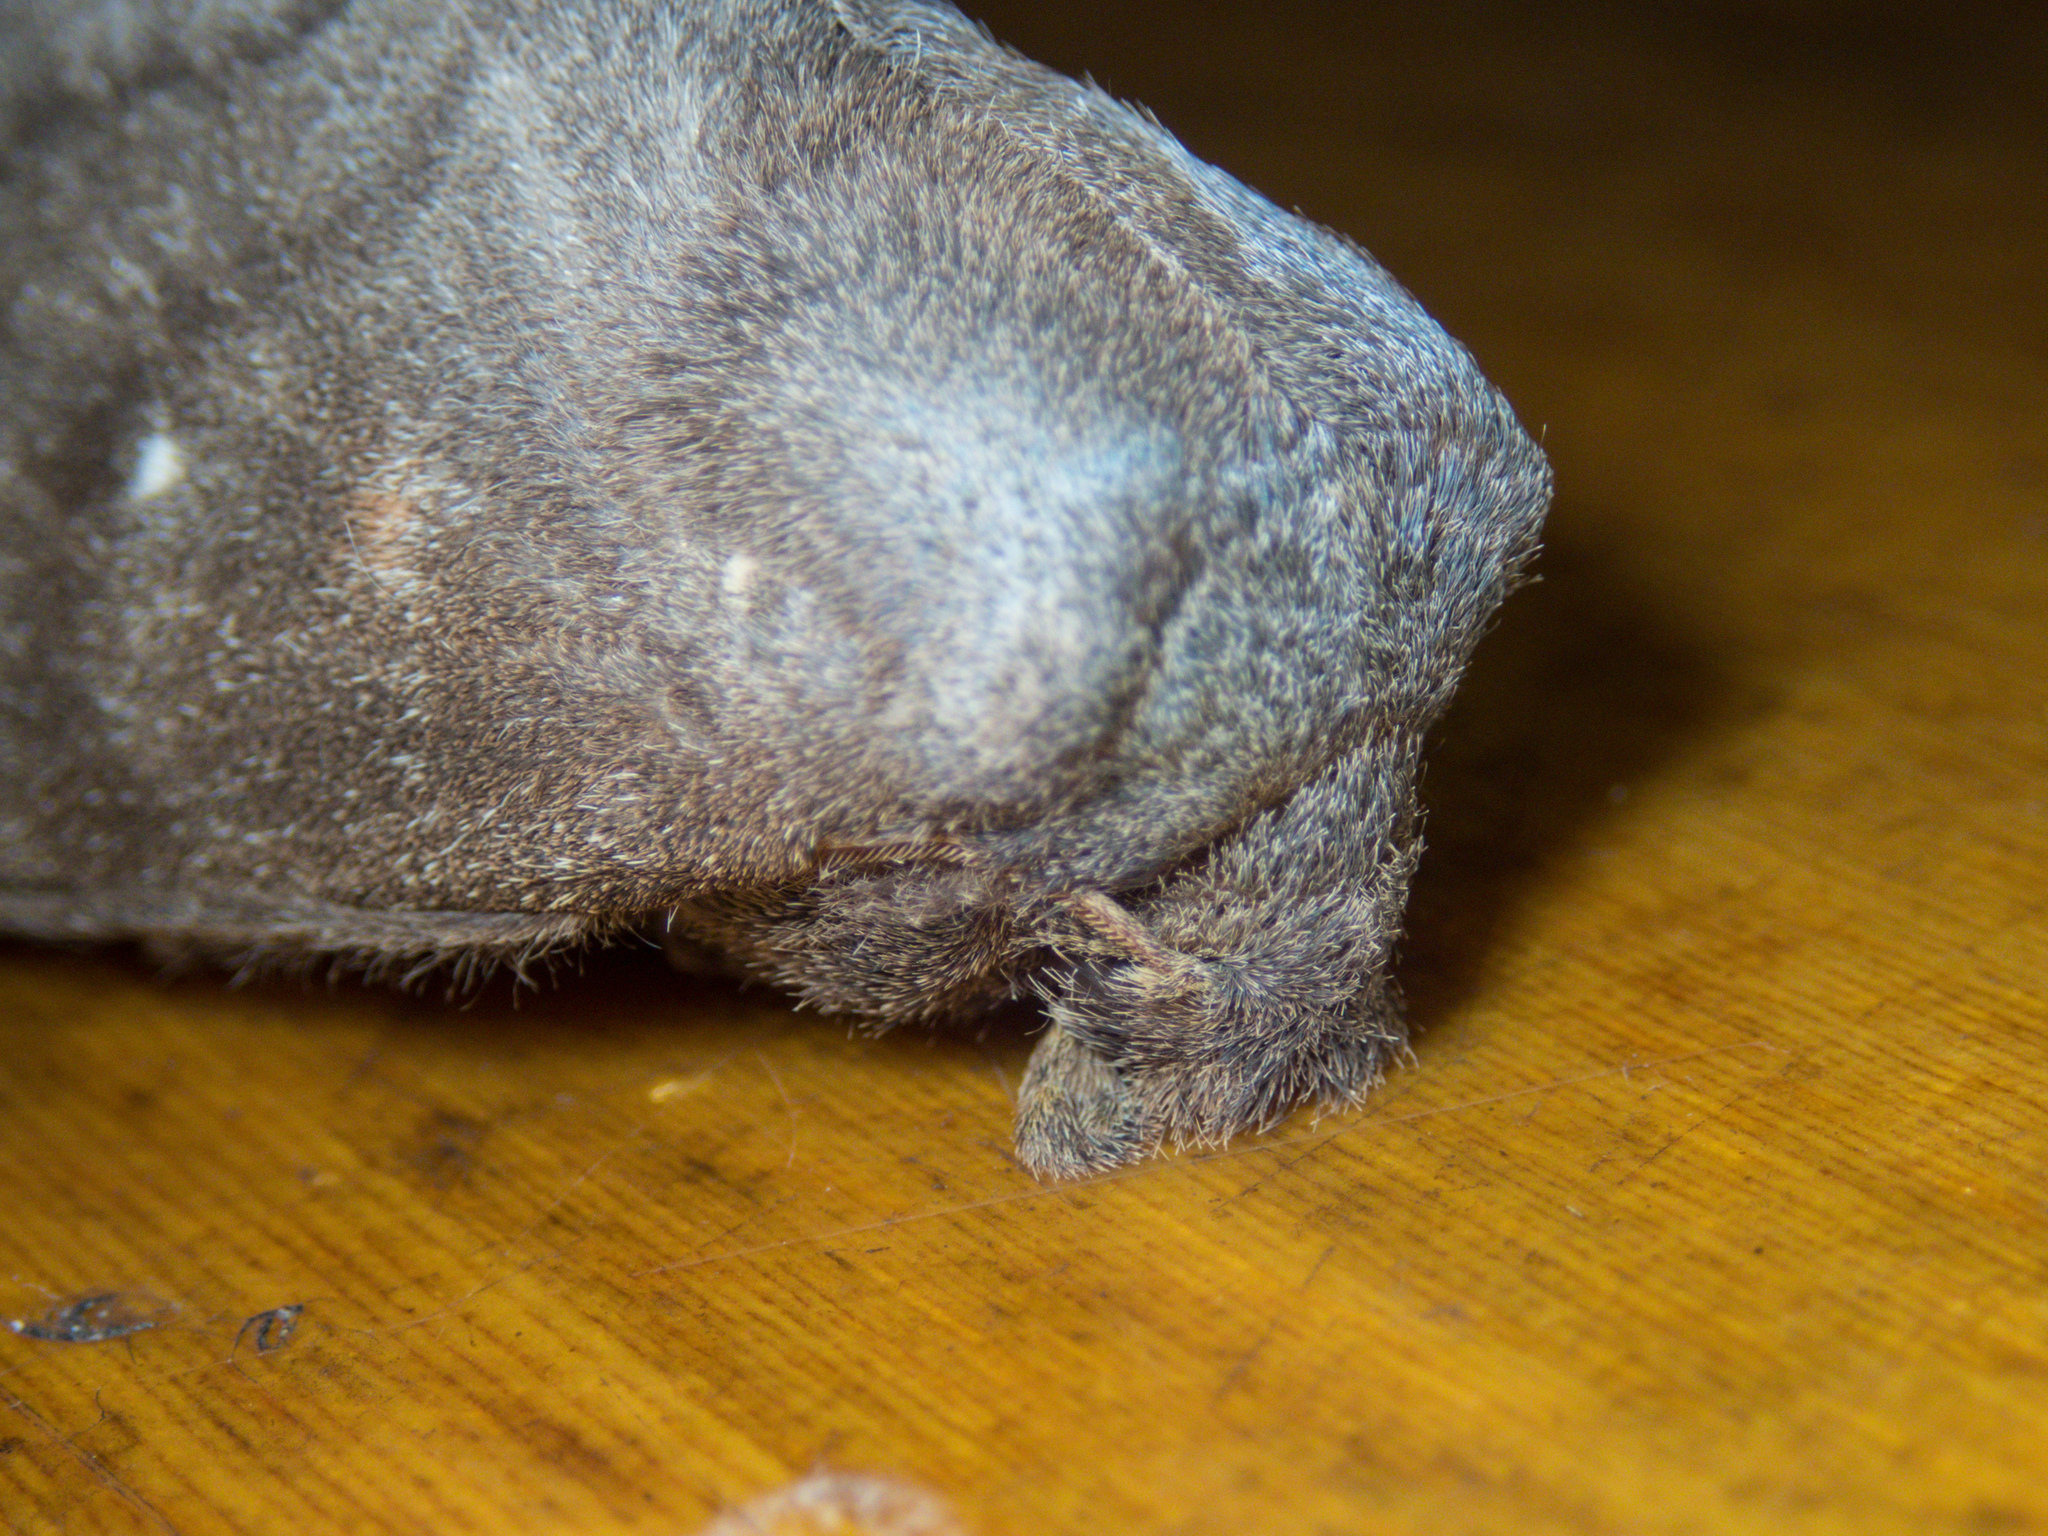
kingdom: Animalia
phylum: Arthropoda
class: Insecta
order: Lepidoptera
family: Lasiocampidae
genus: Kunugia
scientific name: Kunugia latipennis
